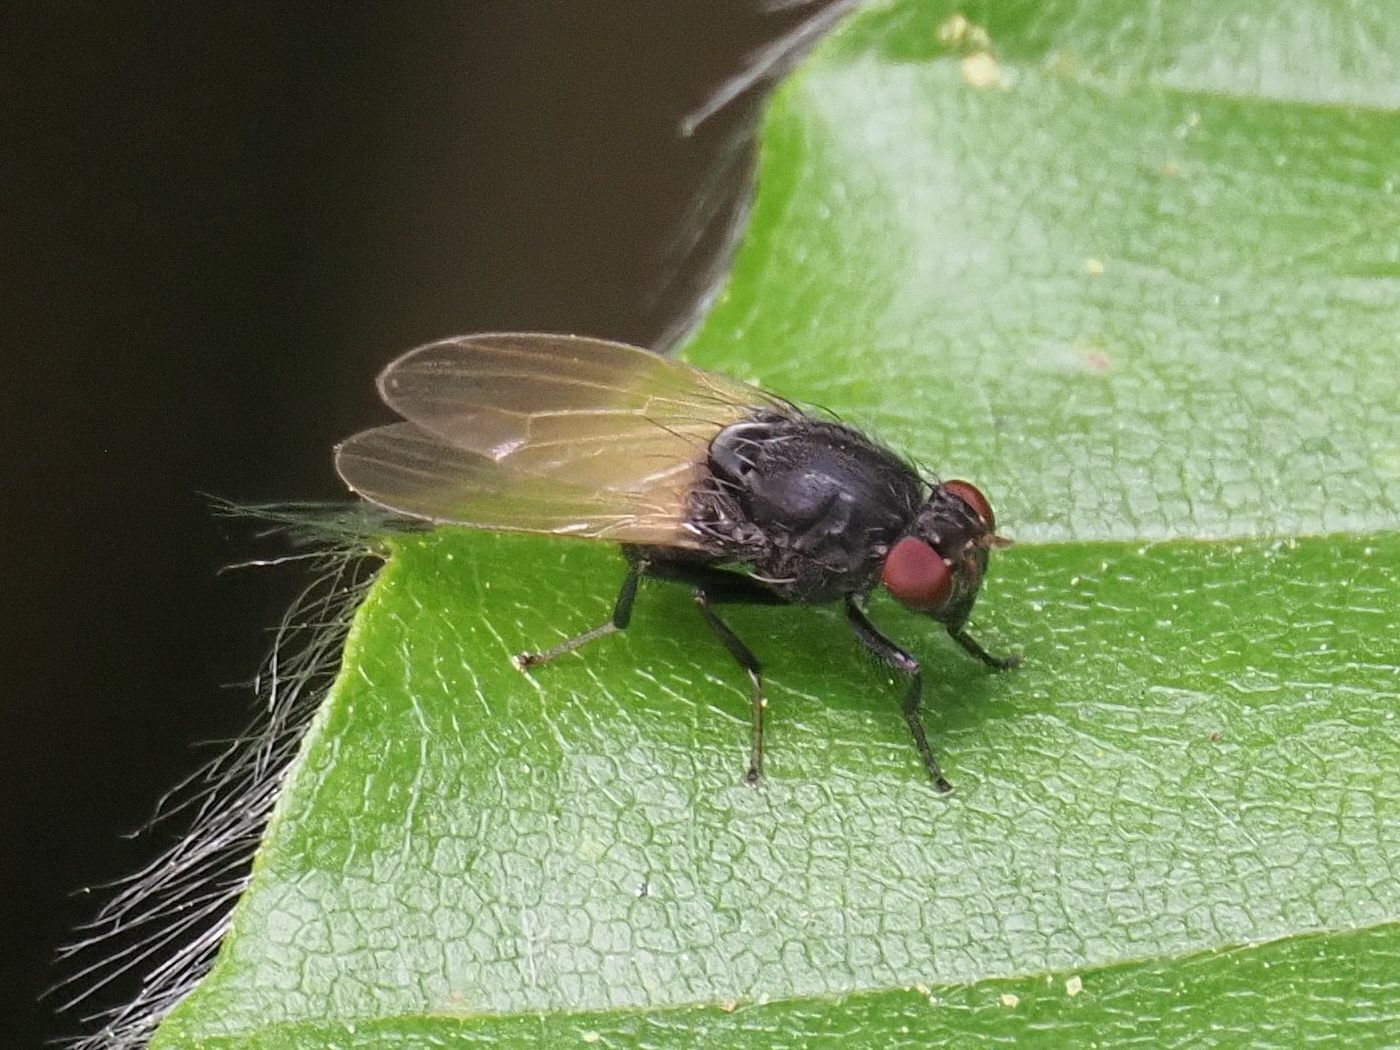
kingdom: Animalia
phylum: Arthropoda
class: Insecta
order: Diptera
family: Lauxaniidae
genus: Minettia
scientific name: Minettia longipennis
